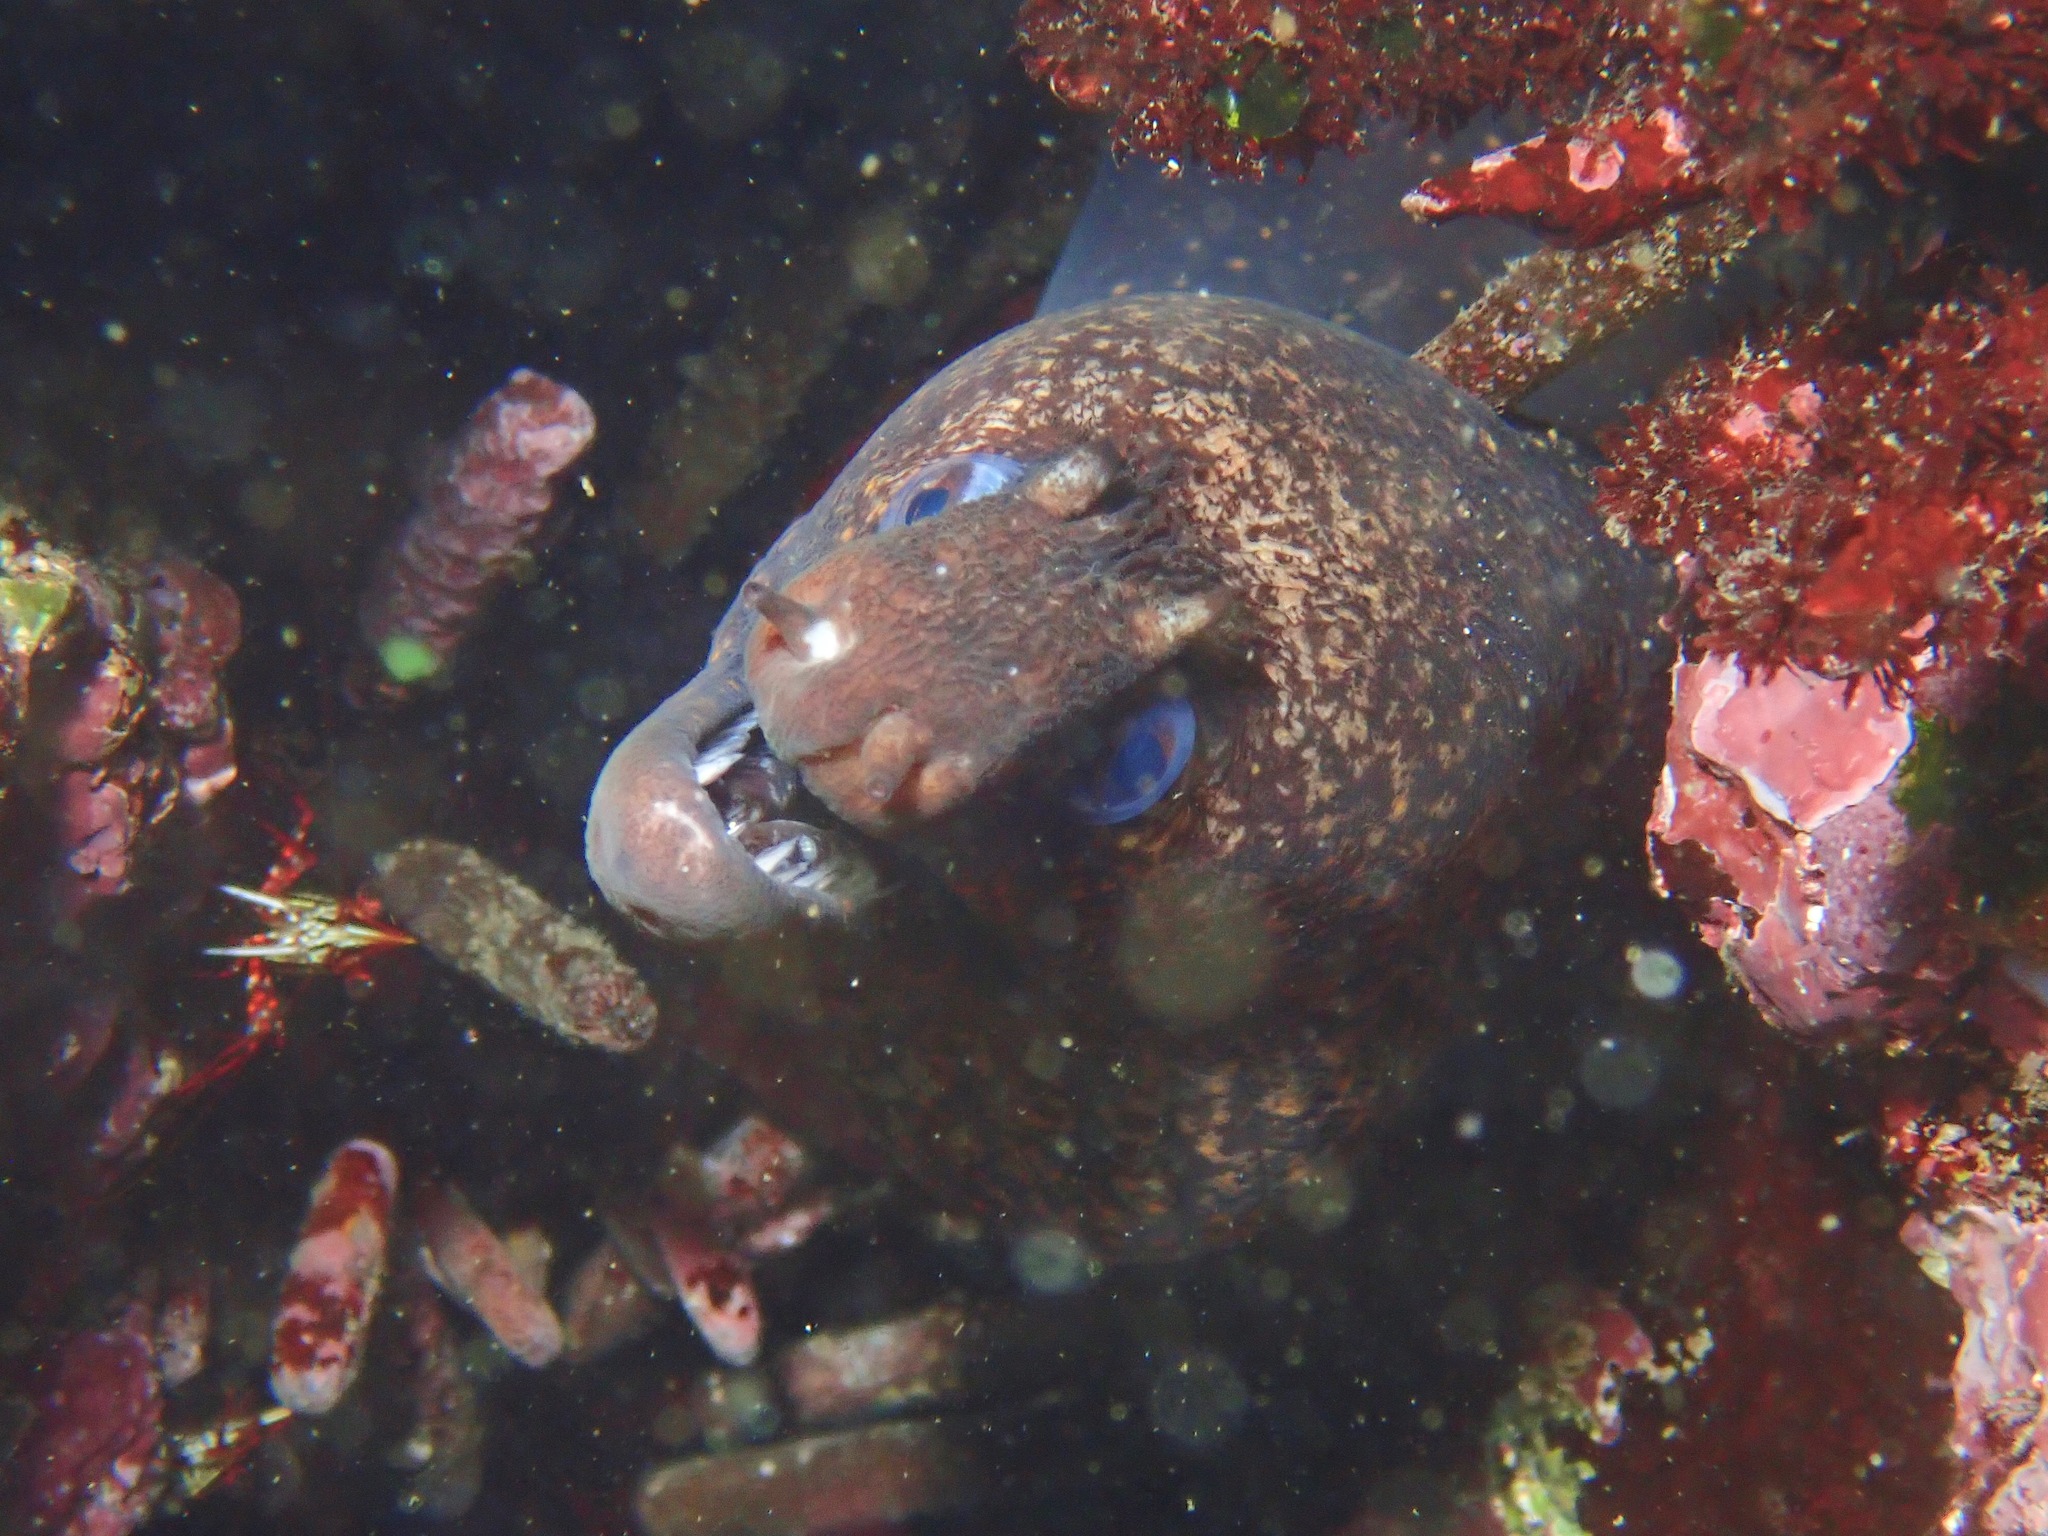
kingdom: Animalia
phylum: Chordata
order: Anguilliformes
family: Muraenidae
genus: Muraena
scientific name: Muraena lentiginosa
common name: Jewel moray
